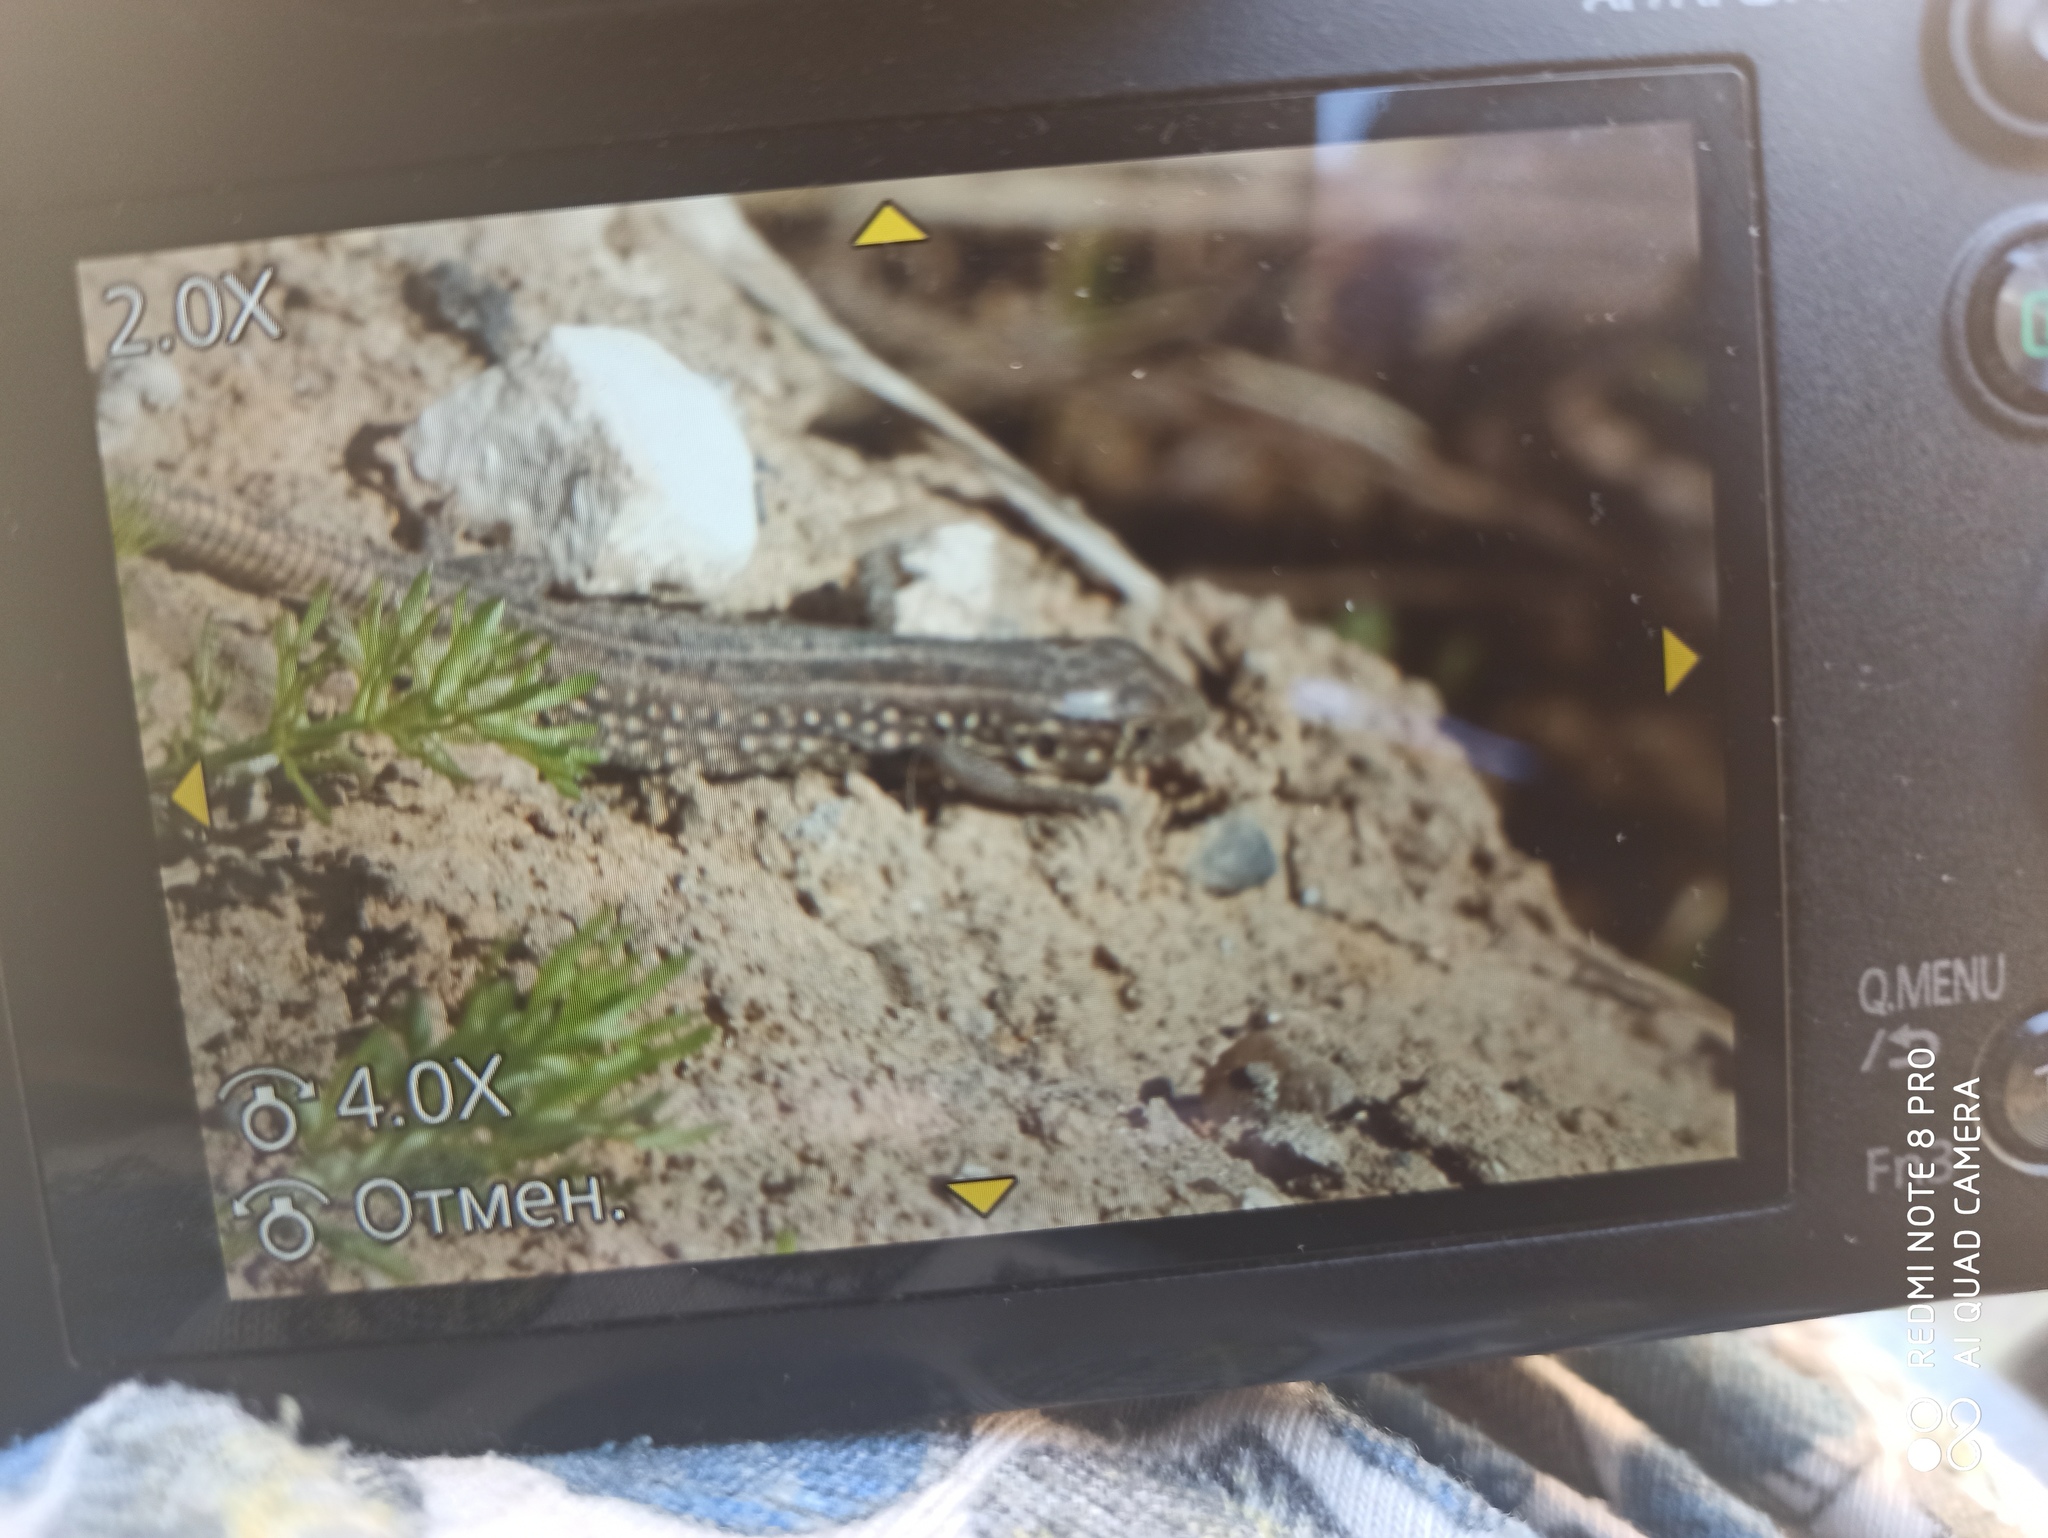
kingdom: Animalia
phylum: Chordata
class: Squamata
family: Lacertidae
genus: Lacerta
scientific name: Lacerta agilis
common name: Sand lizard
